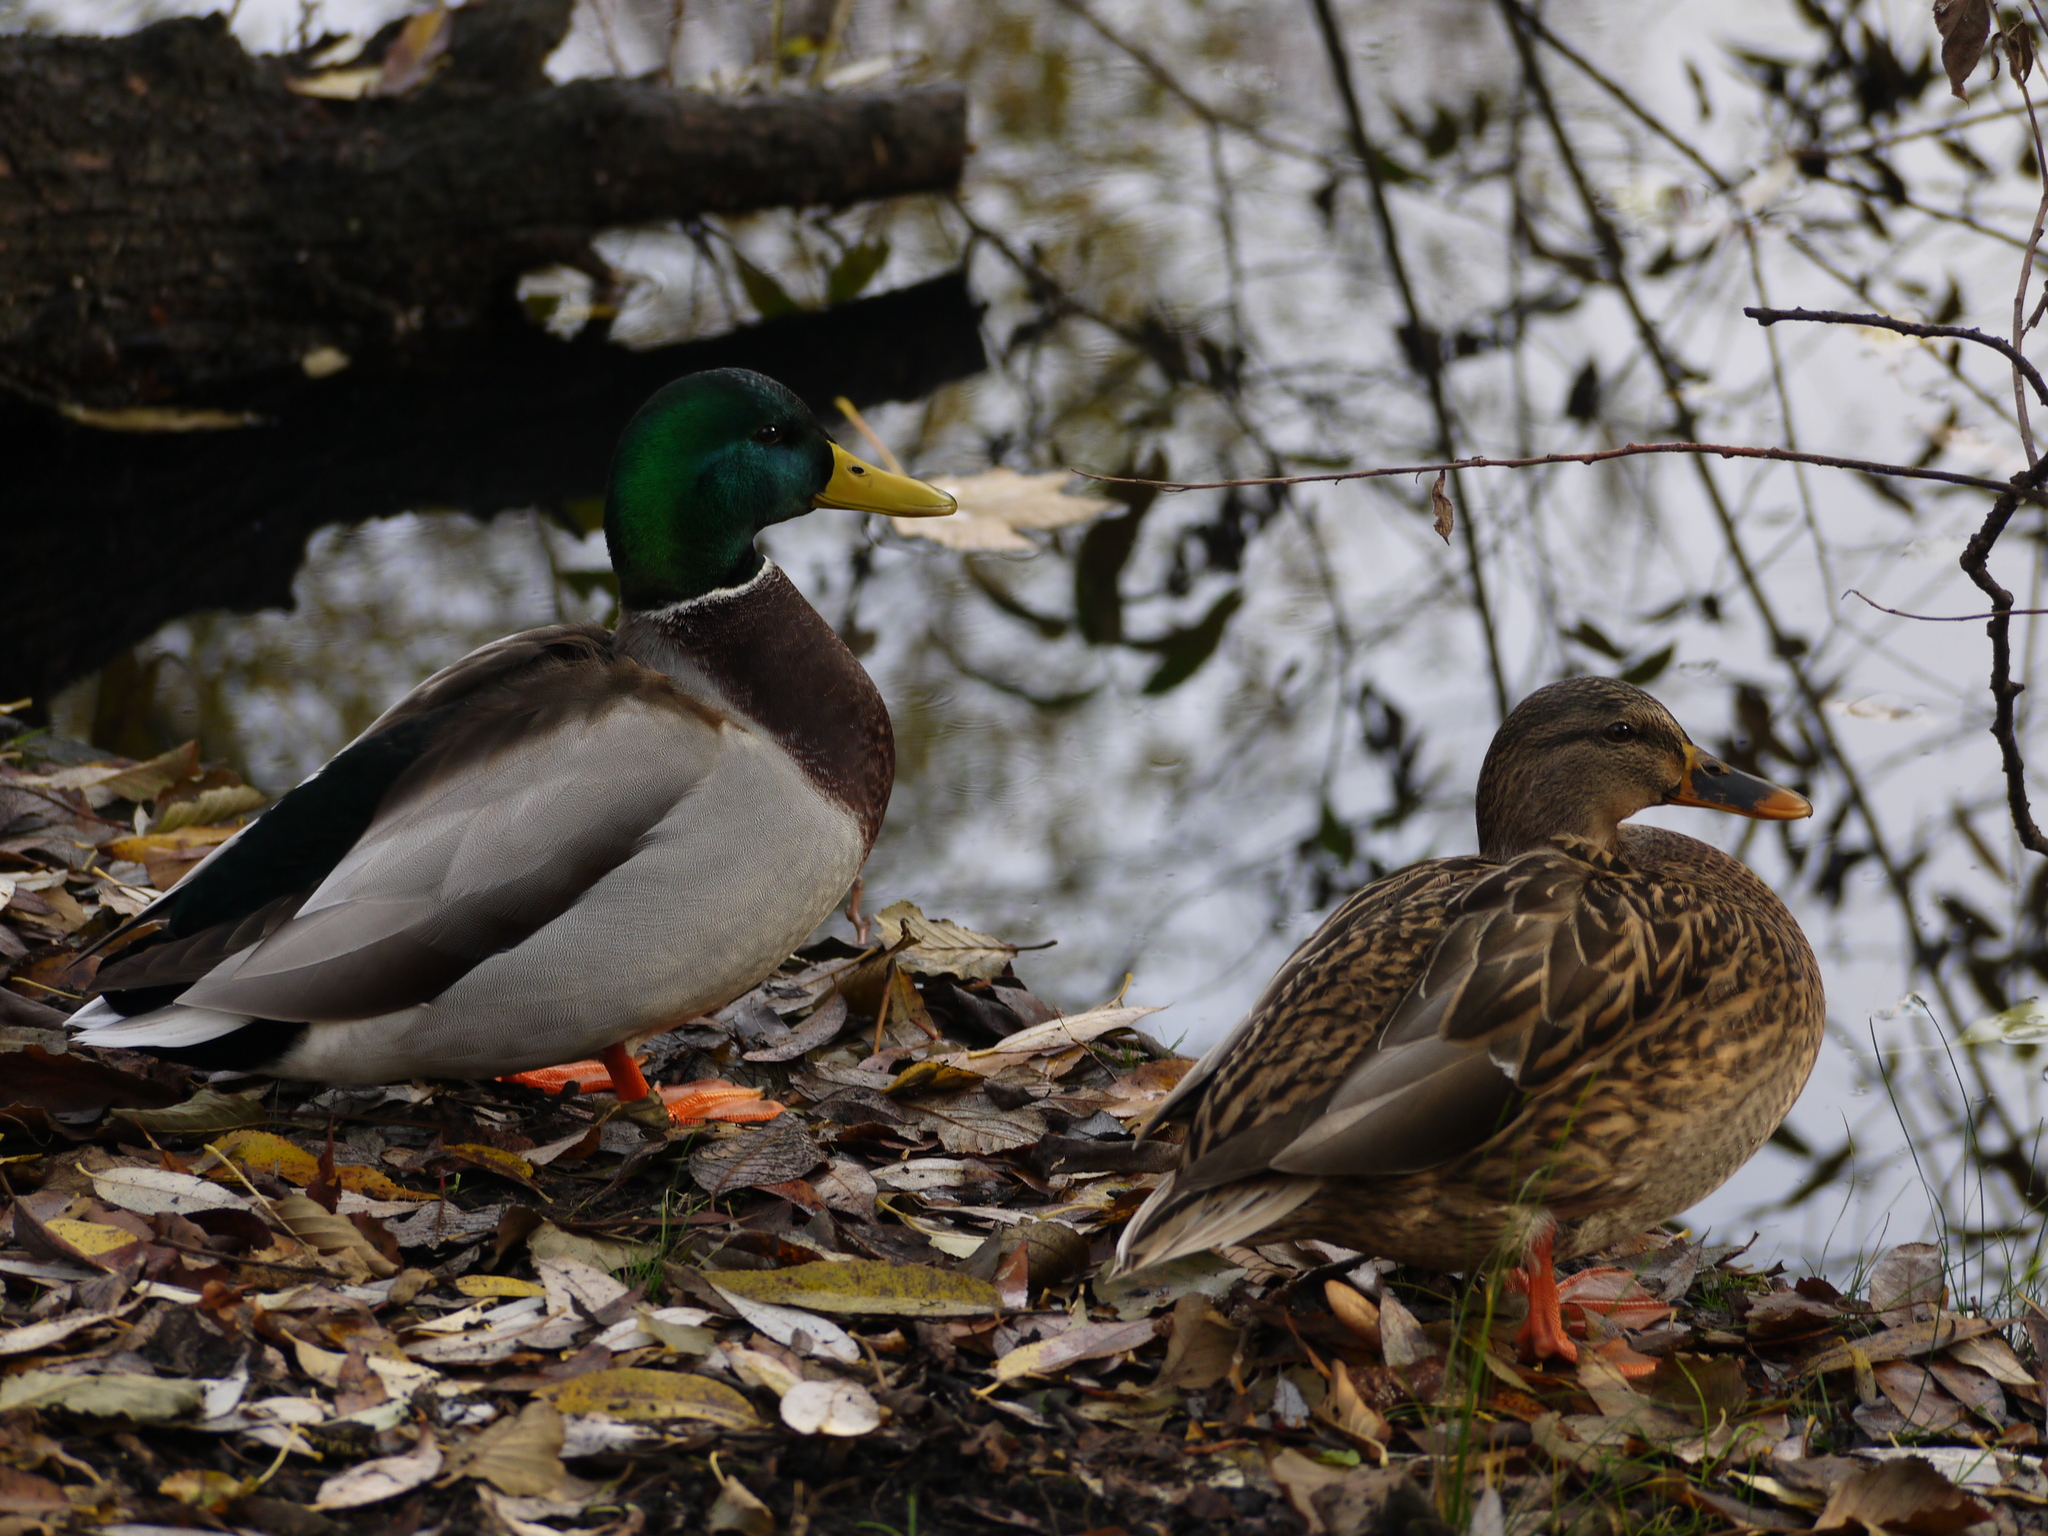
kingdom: Animalia
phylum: Chordata
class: Aves
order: Anseriformes
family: Anatidae
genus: Anas
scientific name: Anas platyrhynchos
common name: Mallard
